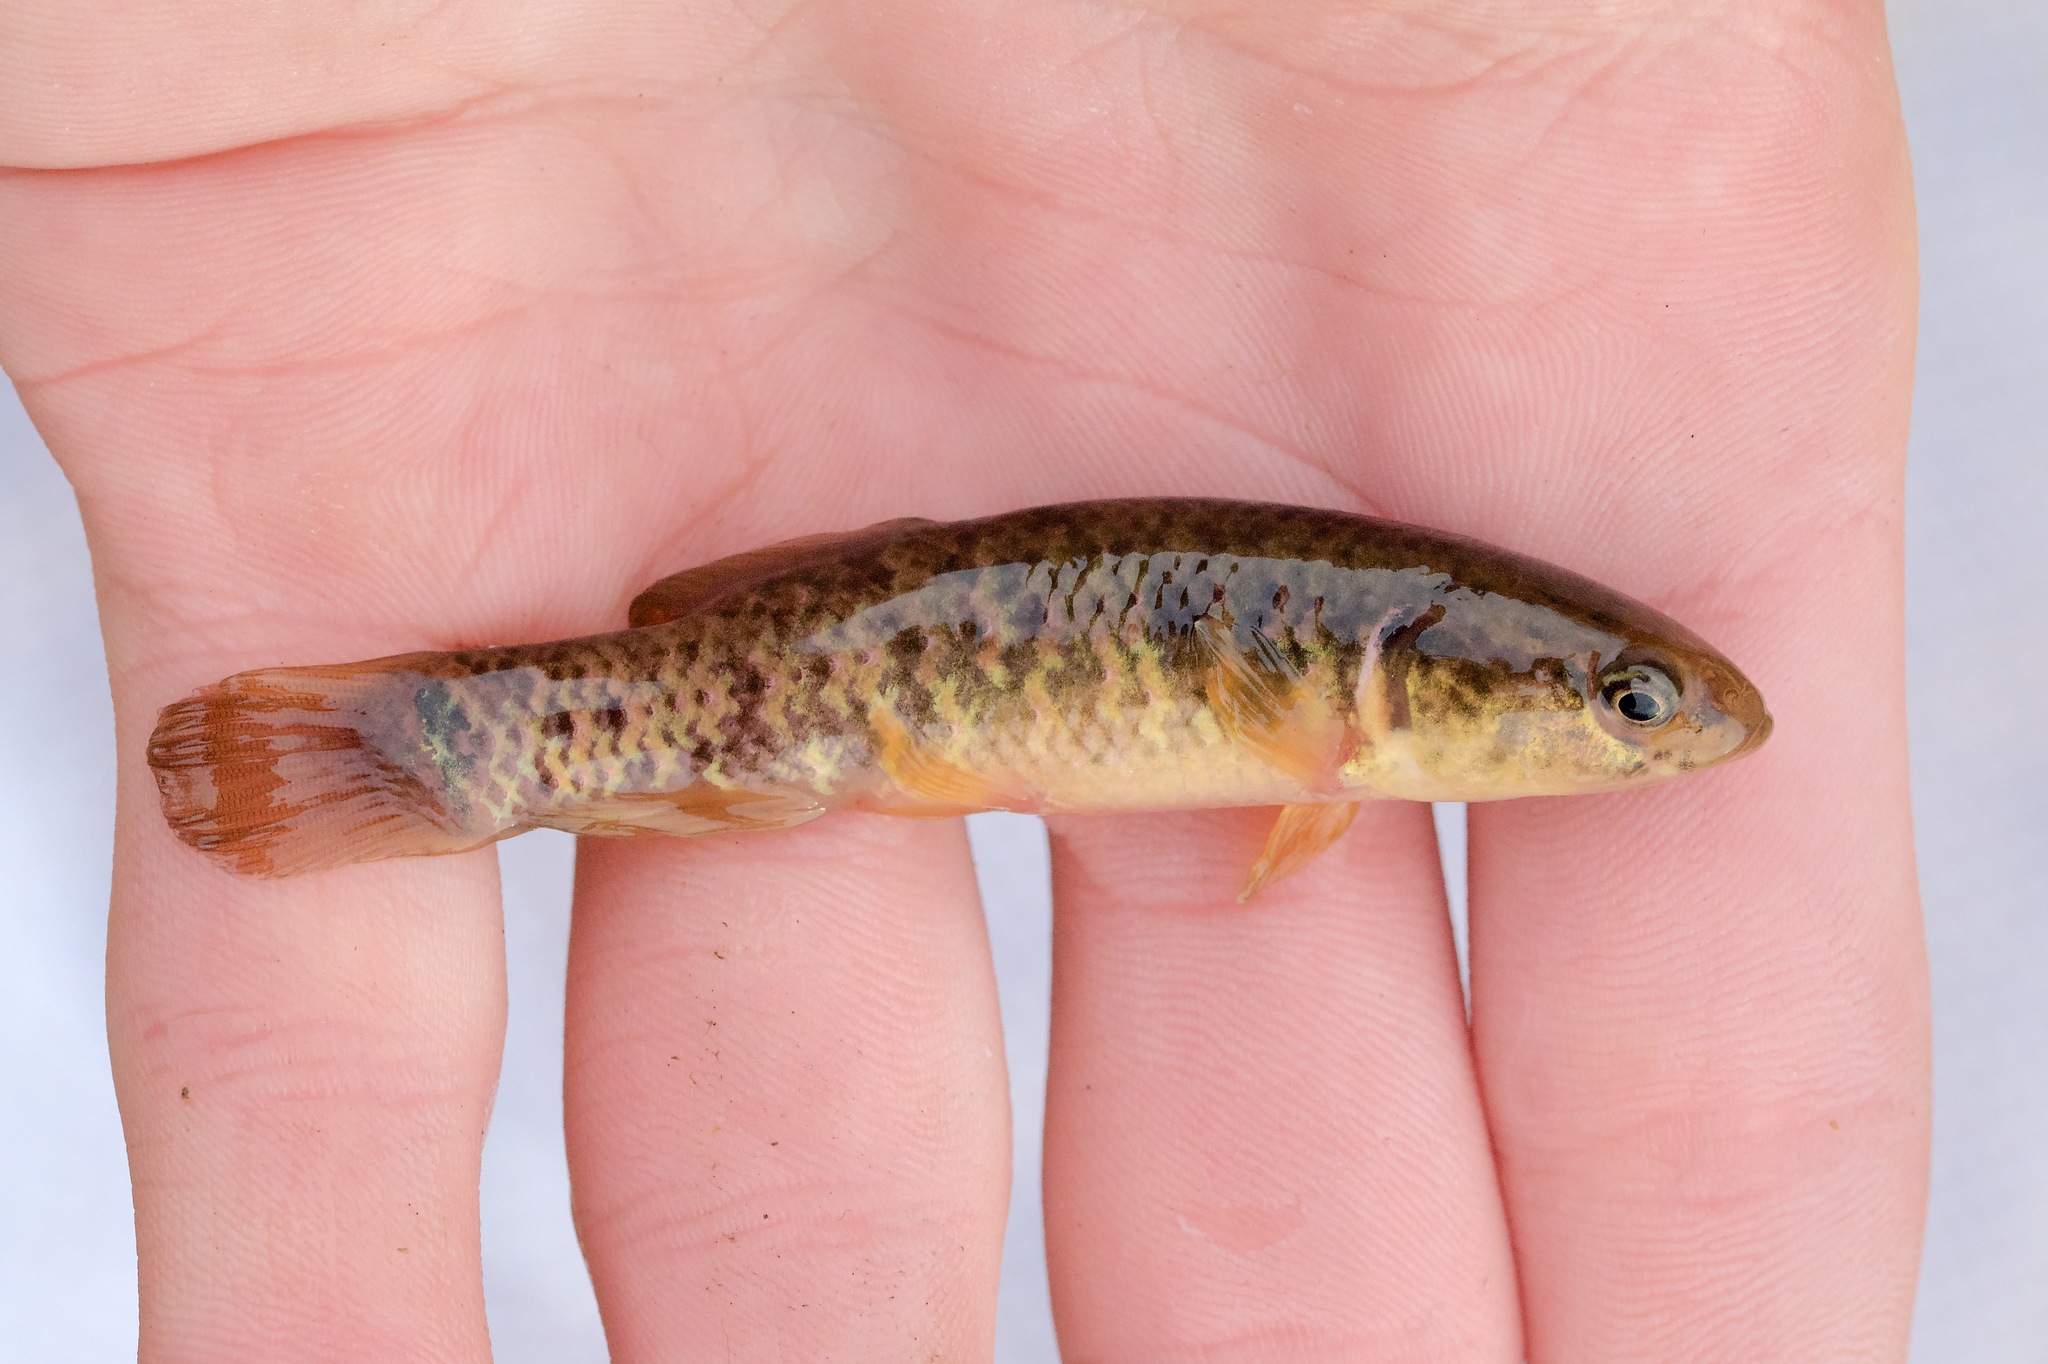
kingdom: Animalia
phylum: Chordata
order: Esociformes
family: Umbridae
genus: Umbra
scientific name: Umbra limi
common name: Central mudminnow
